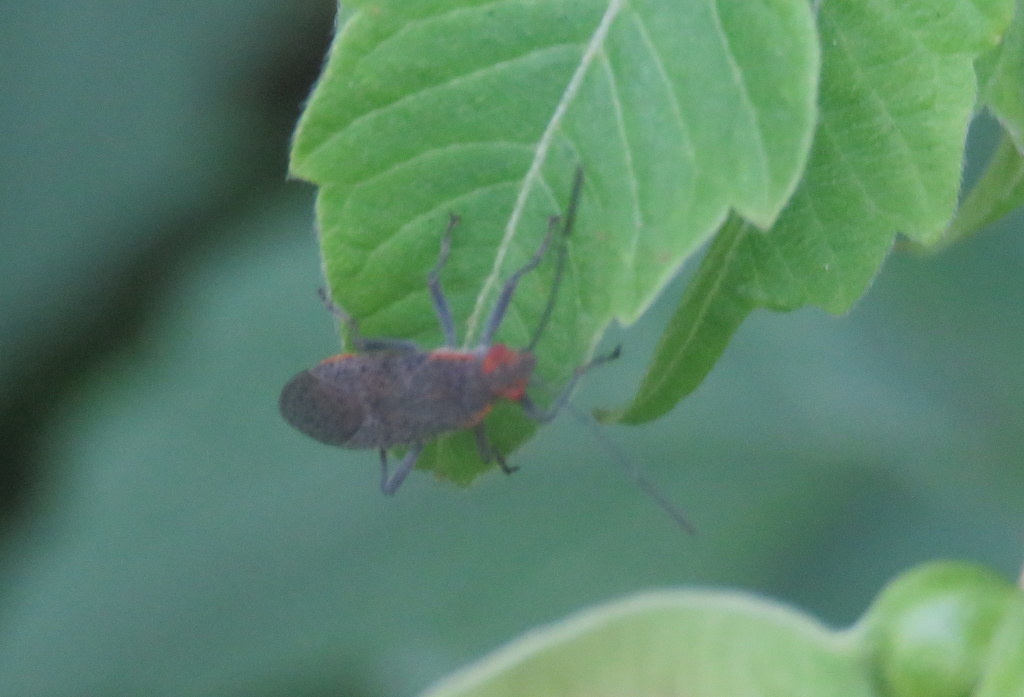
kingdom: Animalia
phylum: Arthropoda
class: Insecta
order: Hemiptera
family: Rhopalidae
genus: Jadera
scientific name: Jadera coturnix
